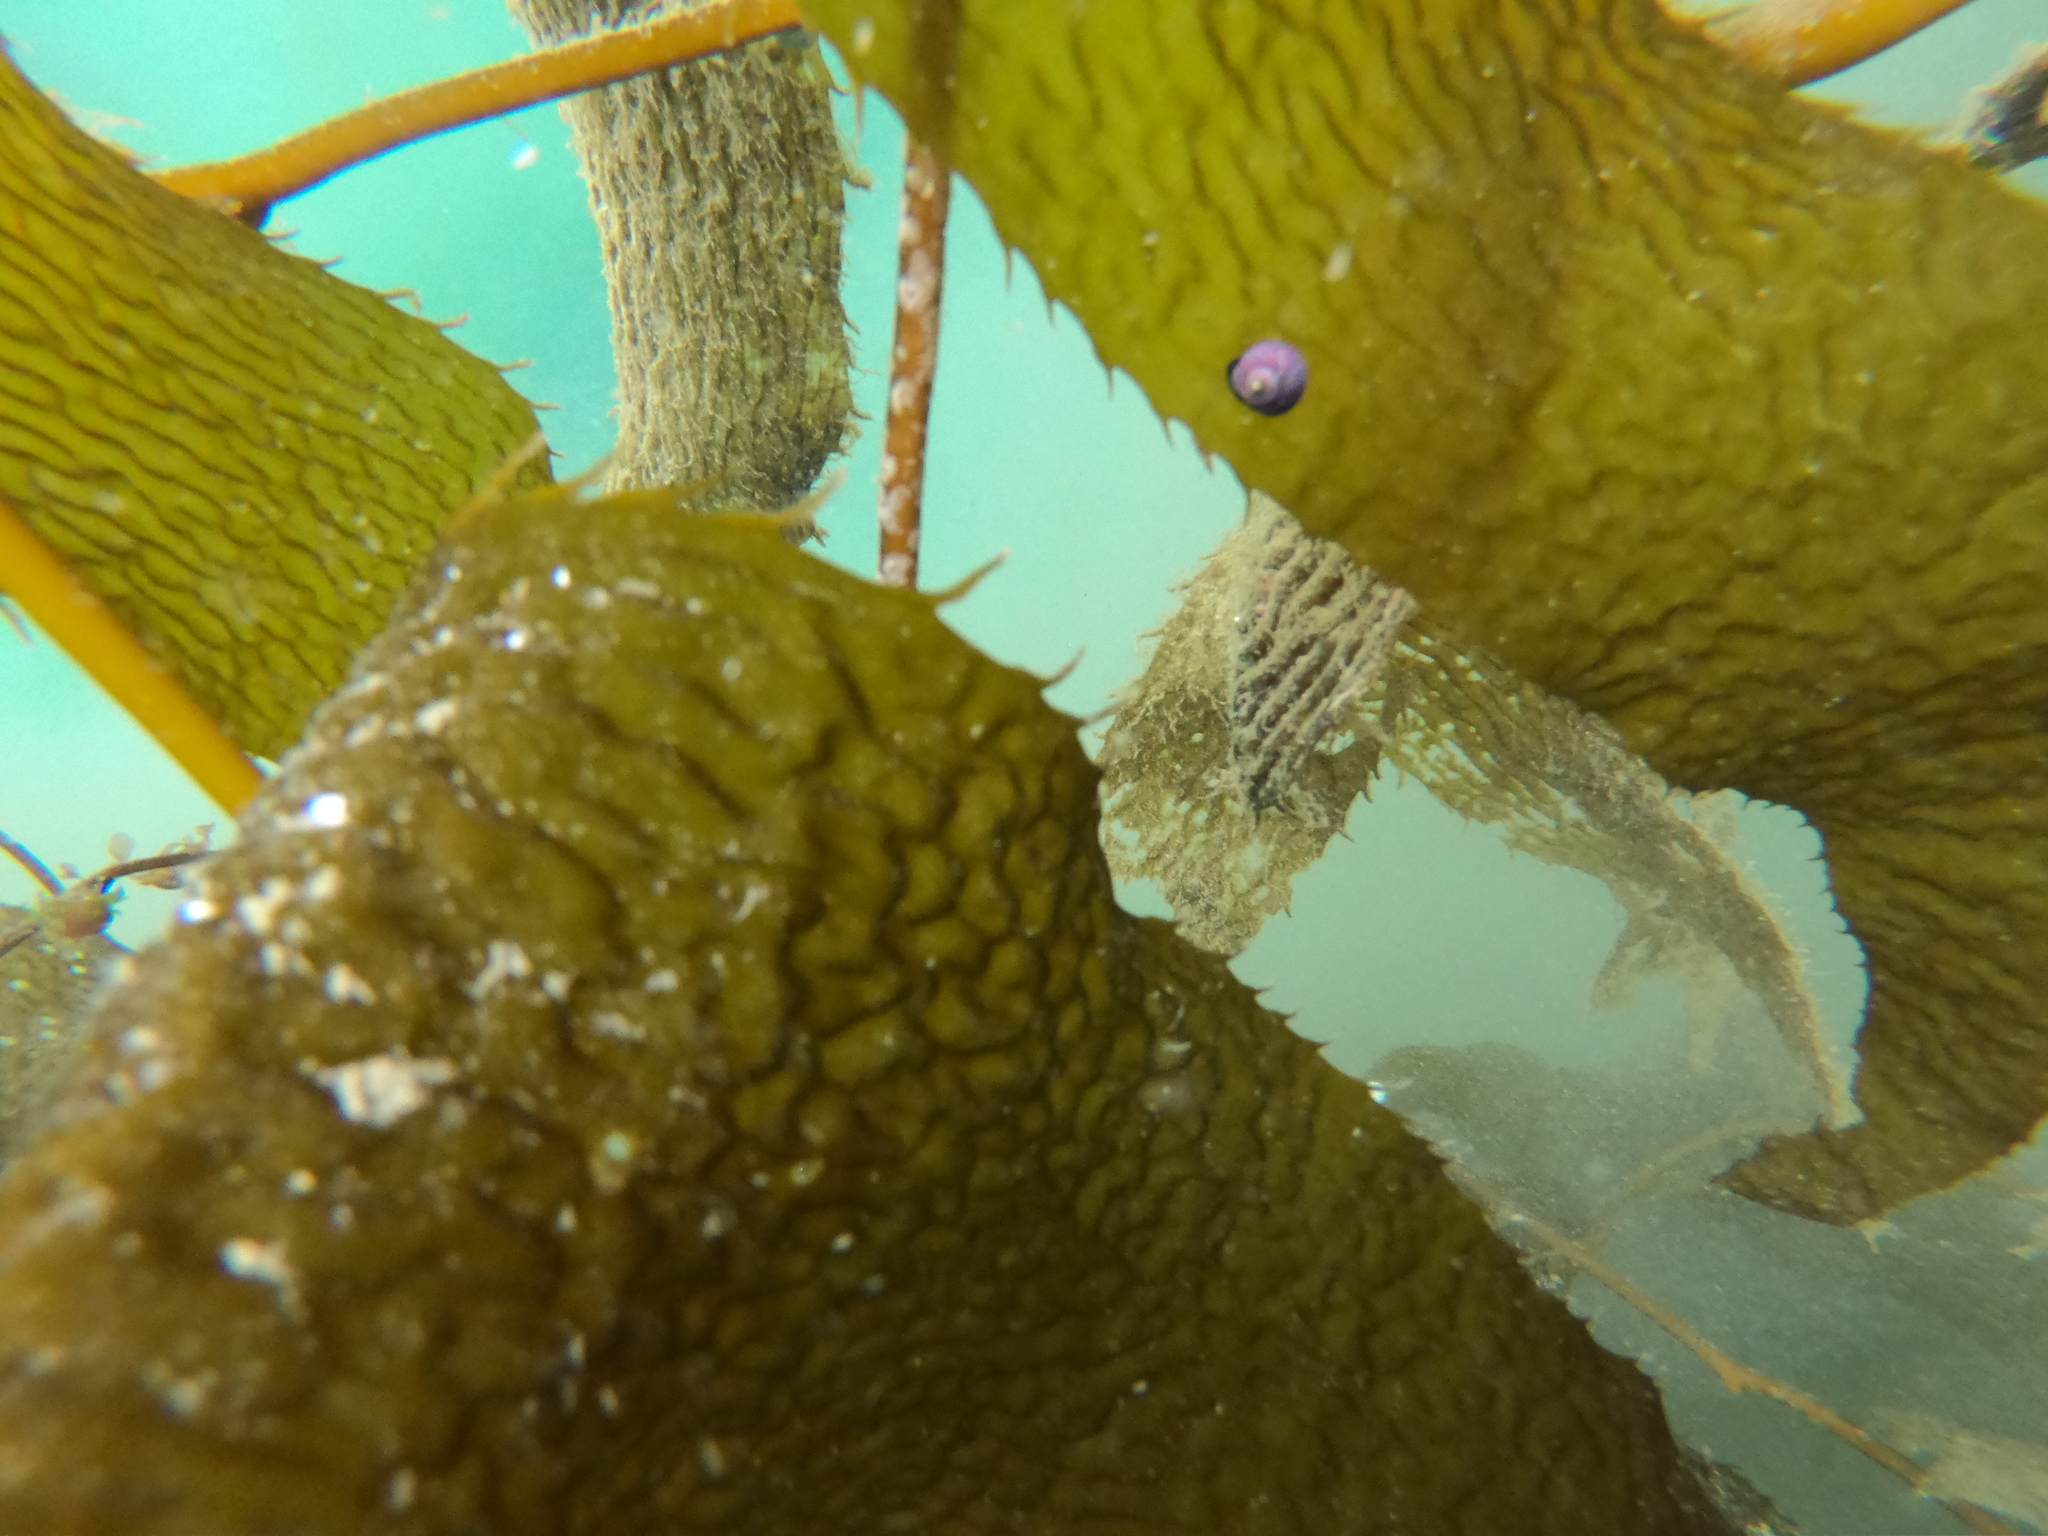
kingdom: Animalia
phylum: Mollusca
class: Gastropoda
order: Trochida
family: Calliostomatidae
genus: Margarella
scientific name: Margarella violacea
